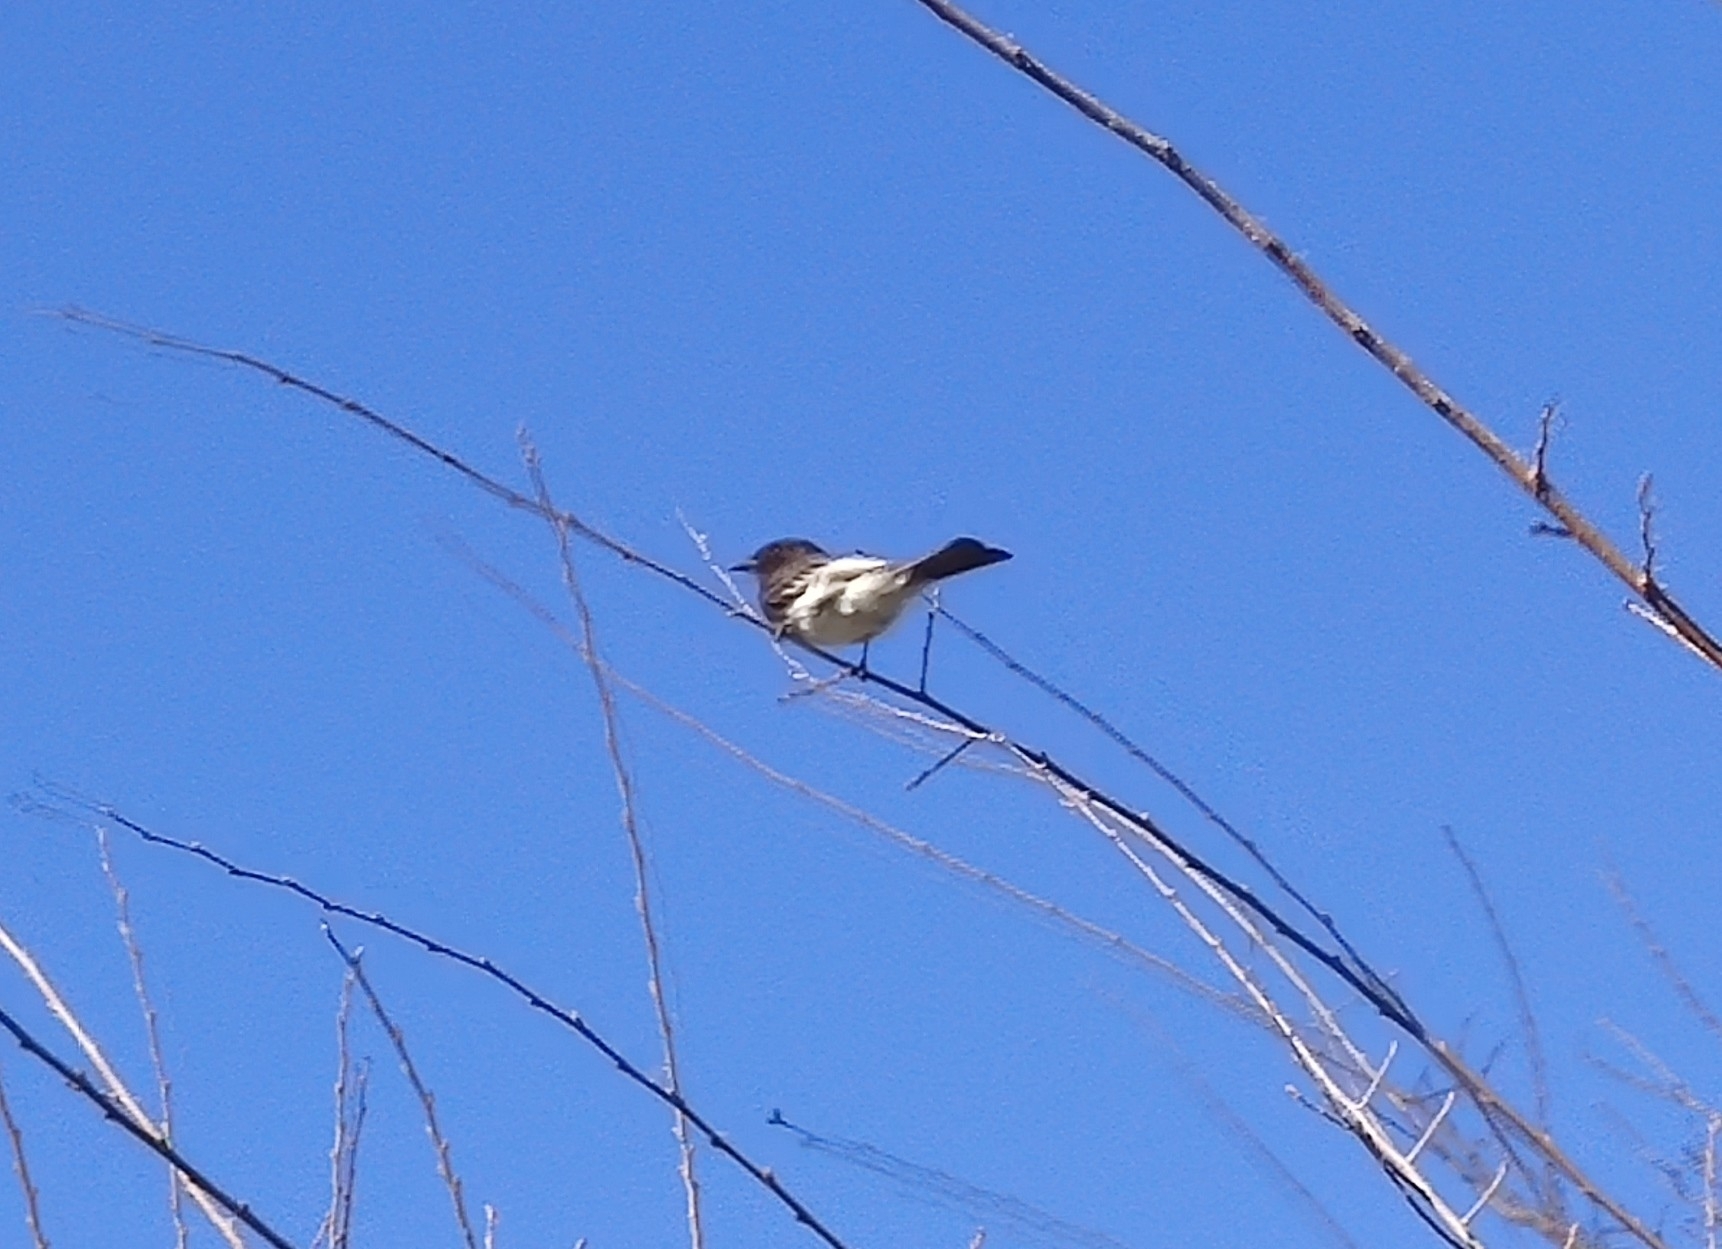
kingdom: Animalia
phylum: Chordata
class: Aves
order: Passeriformes
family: Tyrannidae
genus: Sayornis
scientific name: Sayornis nigricans
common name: Black phoebe
